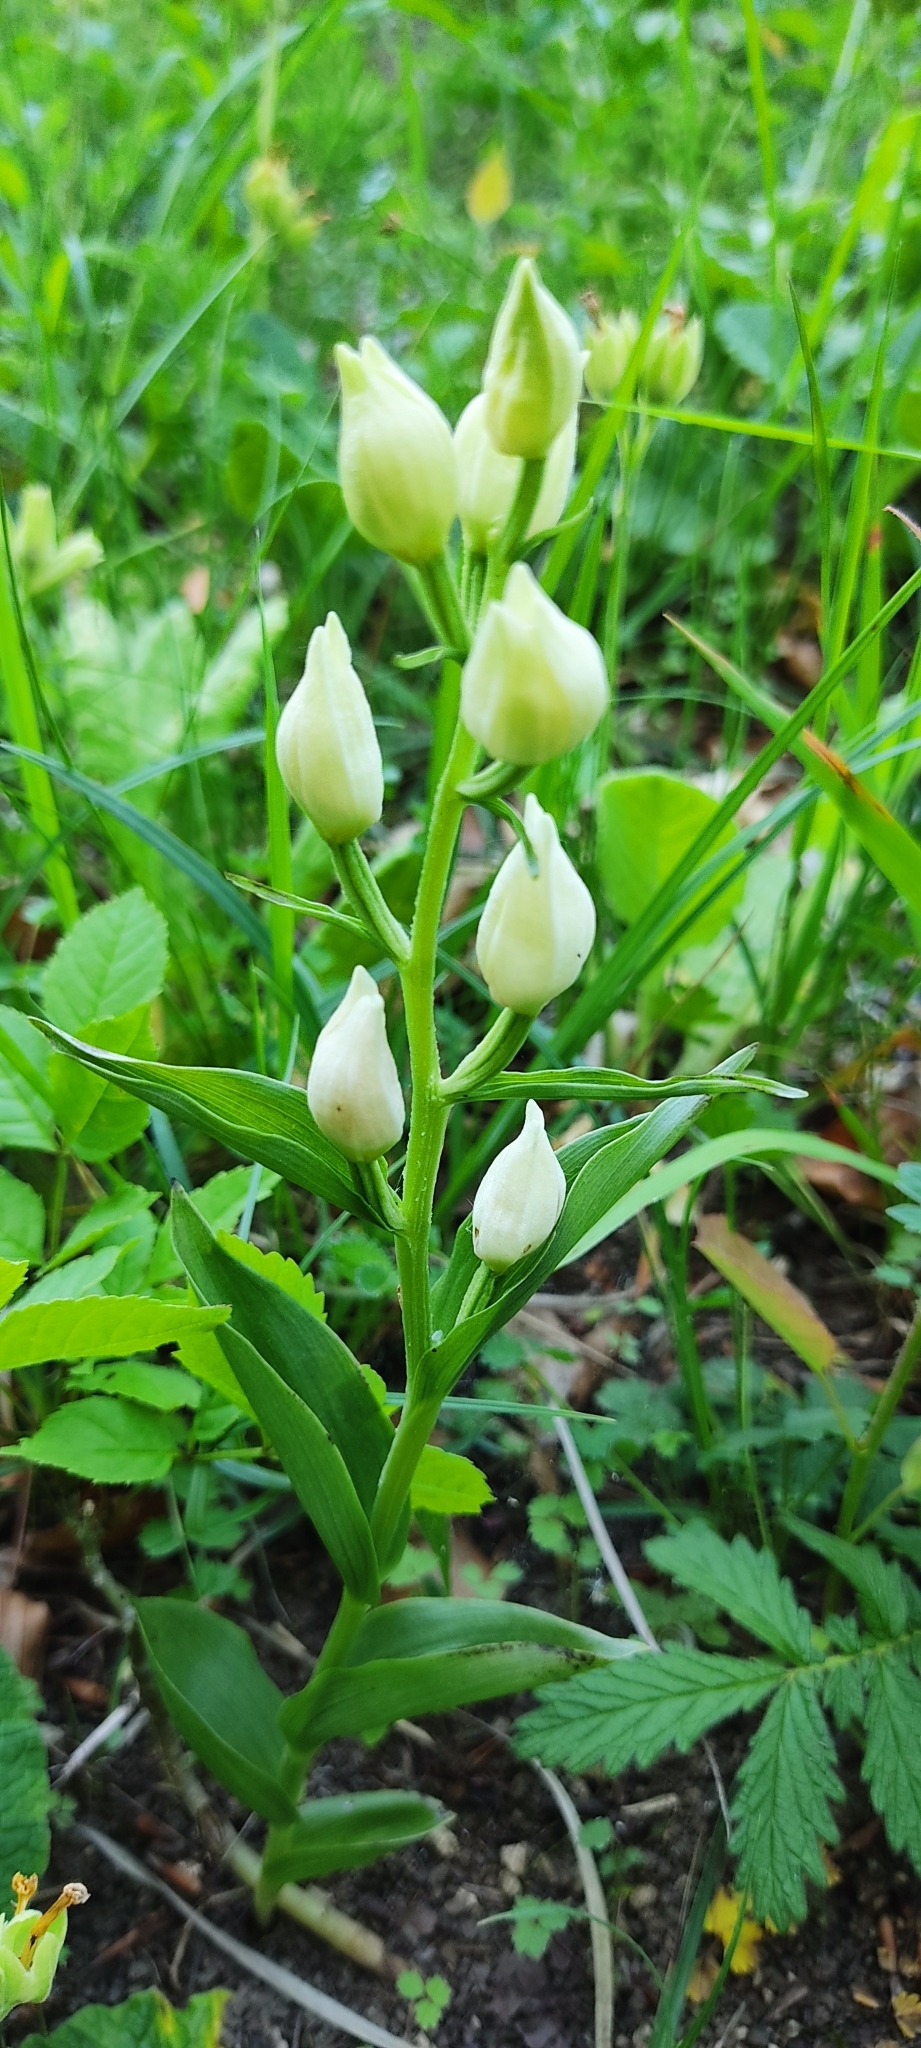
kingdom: Plantae
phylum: Tracheophyta
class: Liliopsida
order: Asparagales
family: Orchidaceae
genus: Cephalanthera
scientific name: Cephalanthera damasonium
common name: White helleborine
